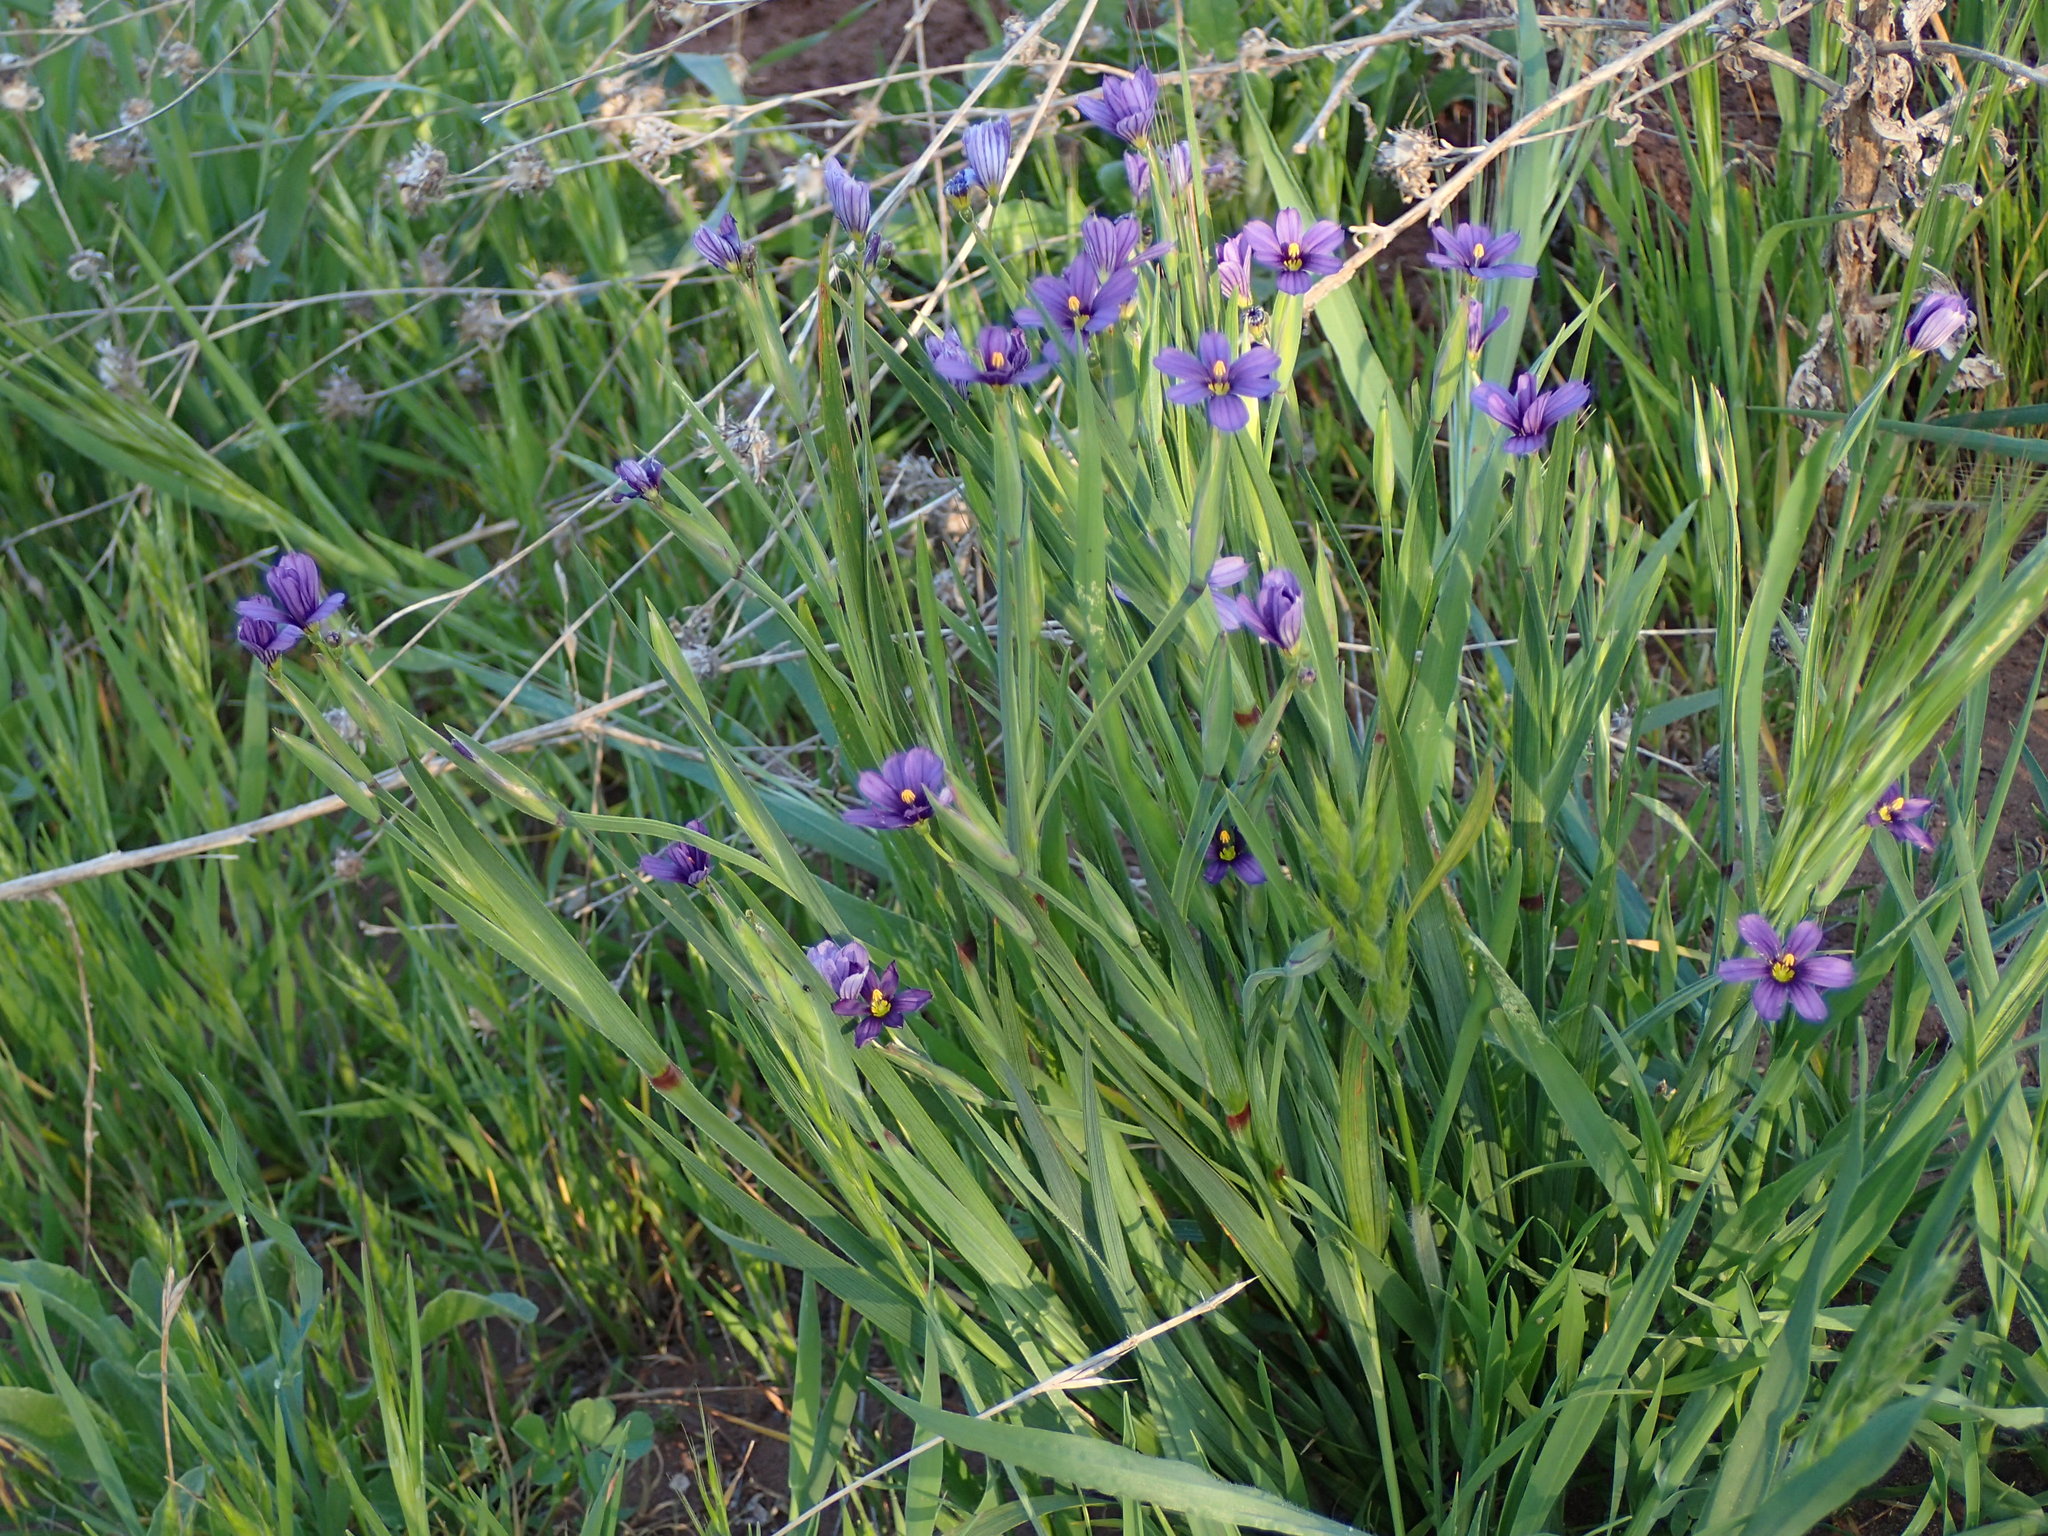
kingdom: Plantae
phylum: Tracheophyta
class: Liliopsida
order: Asparagales
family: Iridaceae
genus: Sisyrinchium
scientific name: Sisyrinchium bellum
